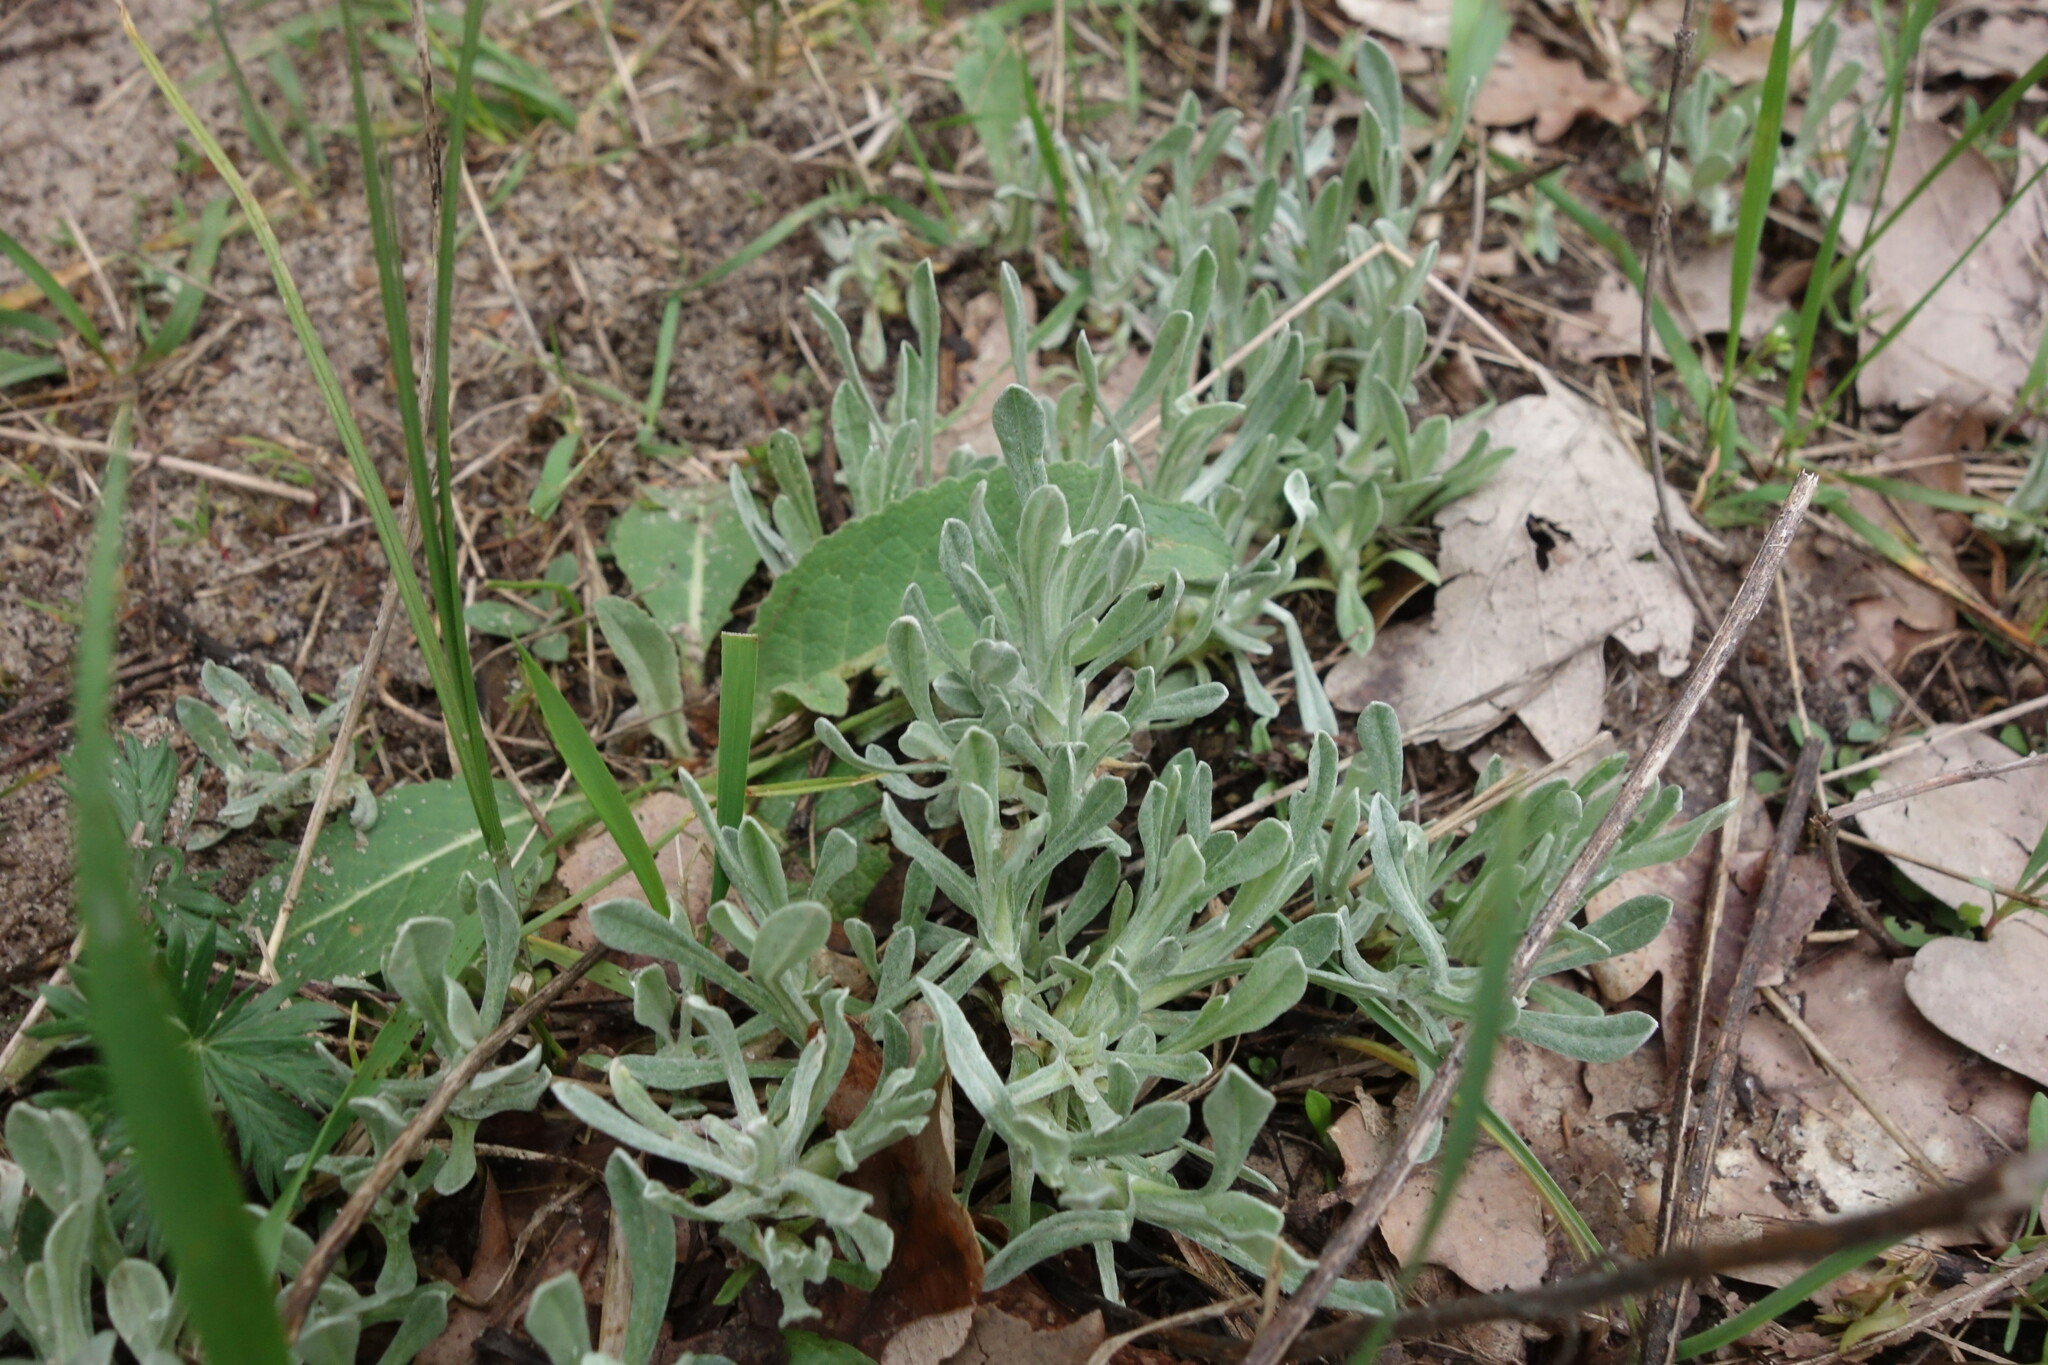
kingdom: Plantae
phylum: Tracheophyta
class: Magnoliopsida
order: Asterales
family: Asteraceae
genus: Helichrysum
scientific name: Helichrysum arenarium
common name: Strawflower
